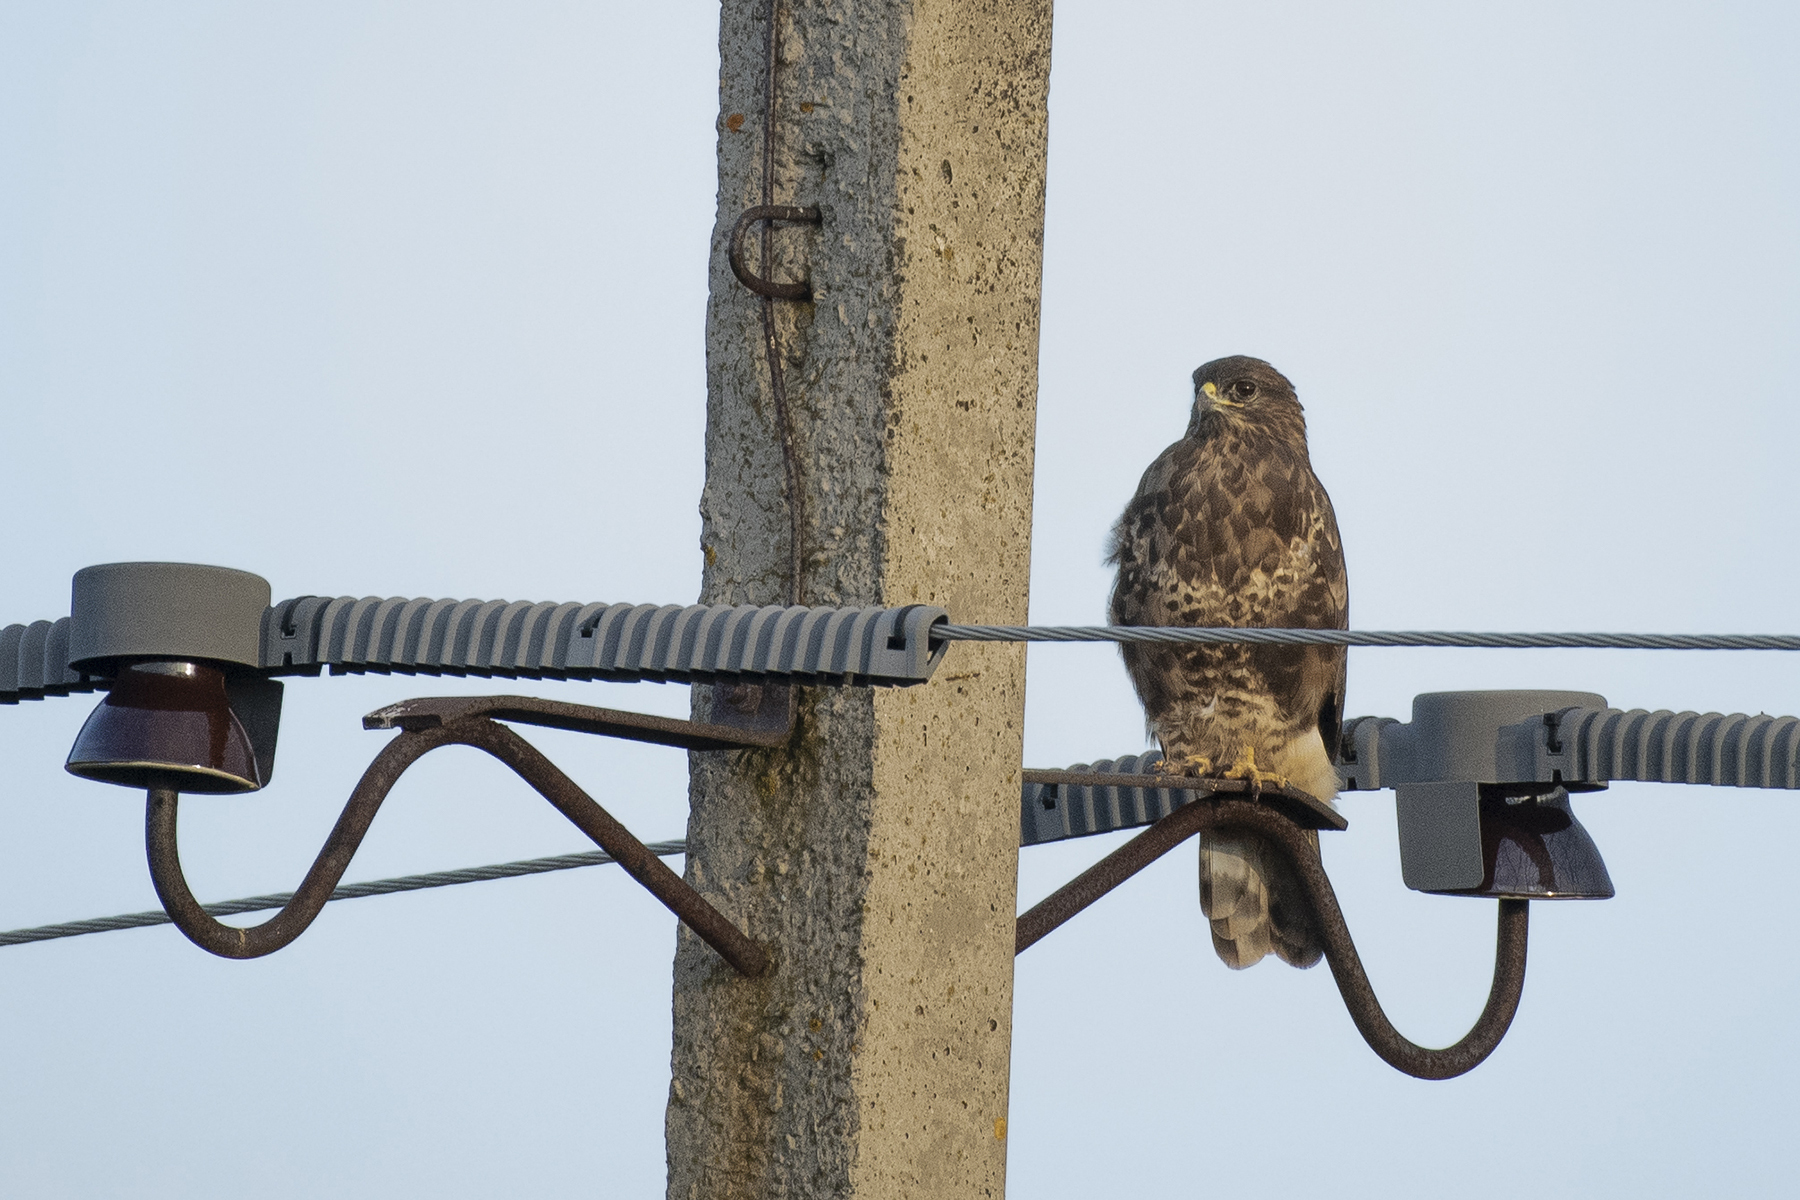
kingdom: Animalia
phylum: Chordata
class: Aves
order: Accipitriformes
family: Accipitridae
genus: Buteo
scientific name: Buteo buteo
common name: Common buzzard
